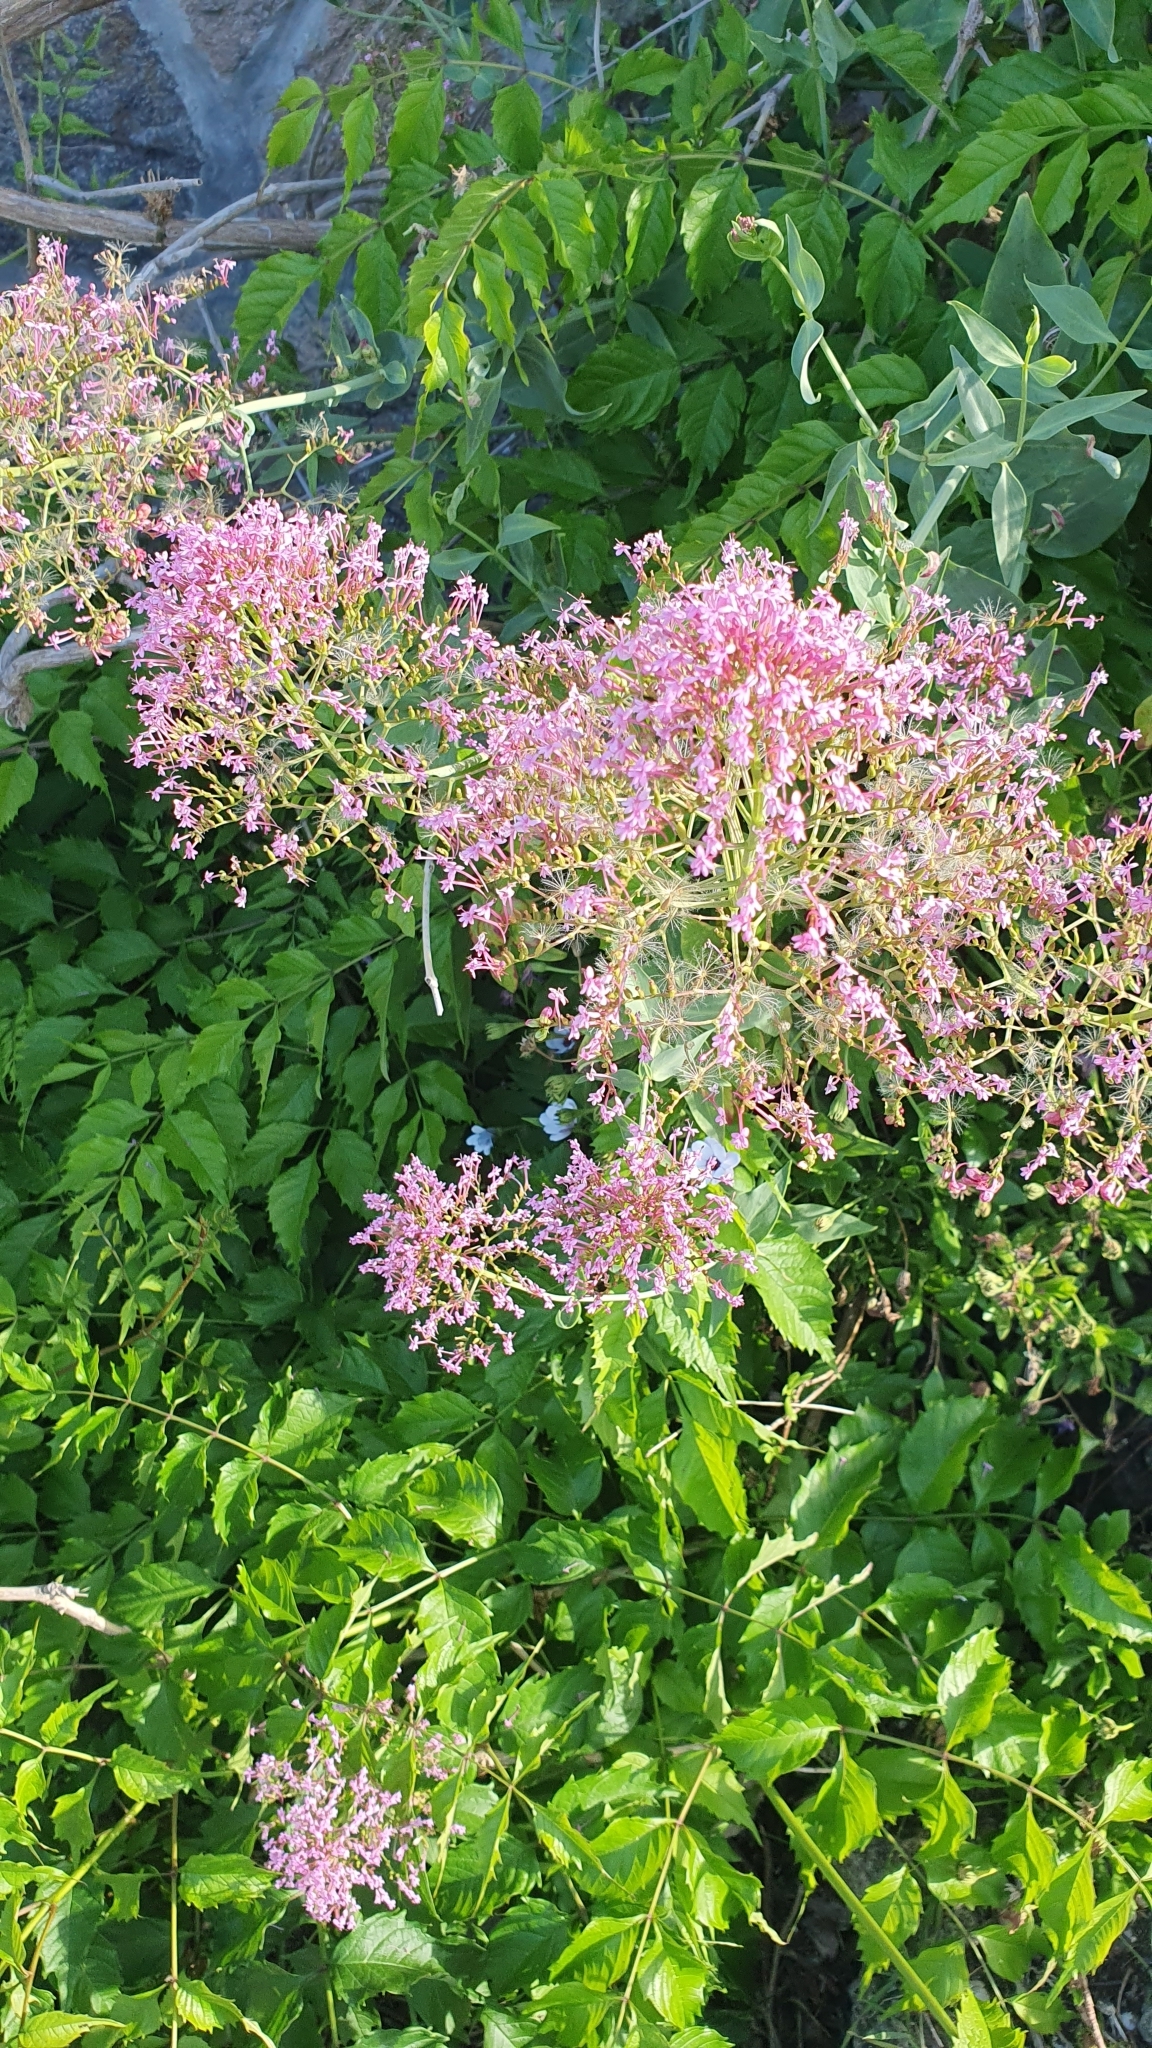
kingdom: Plantae
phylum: Tracheophyta
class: Magnoliopsida
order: Dipsacales
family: Caprifoliaceae
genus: Centranthus
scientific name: Centranthus ruber
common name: Red valerian
